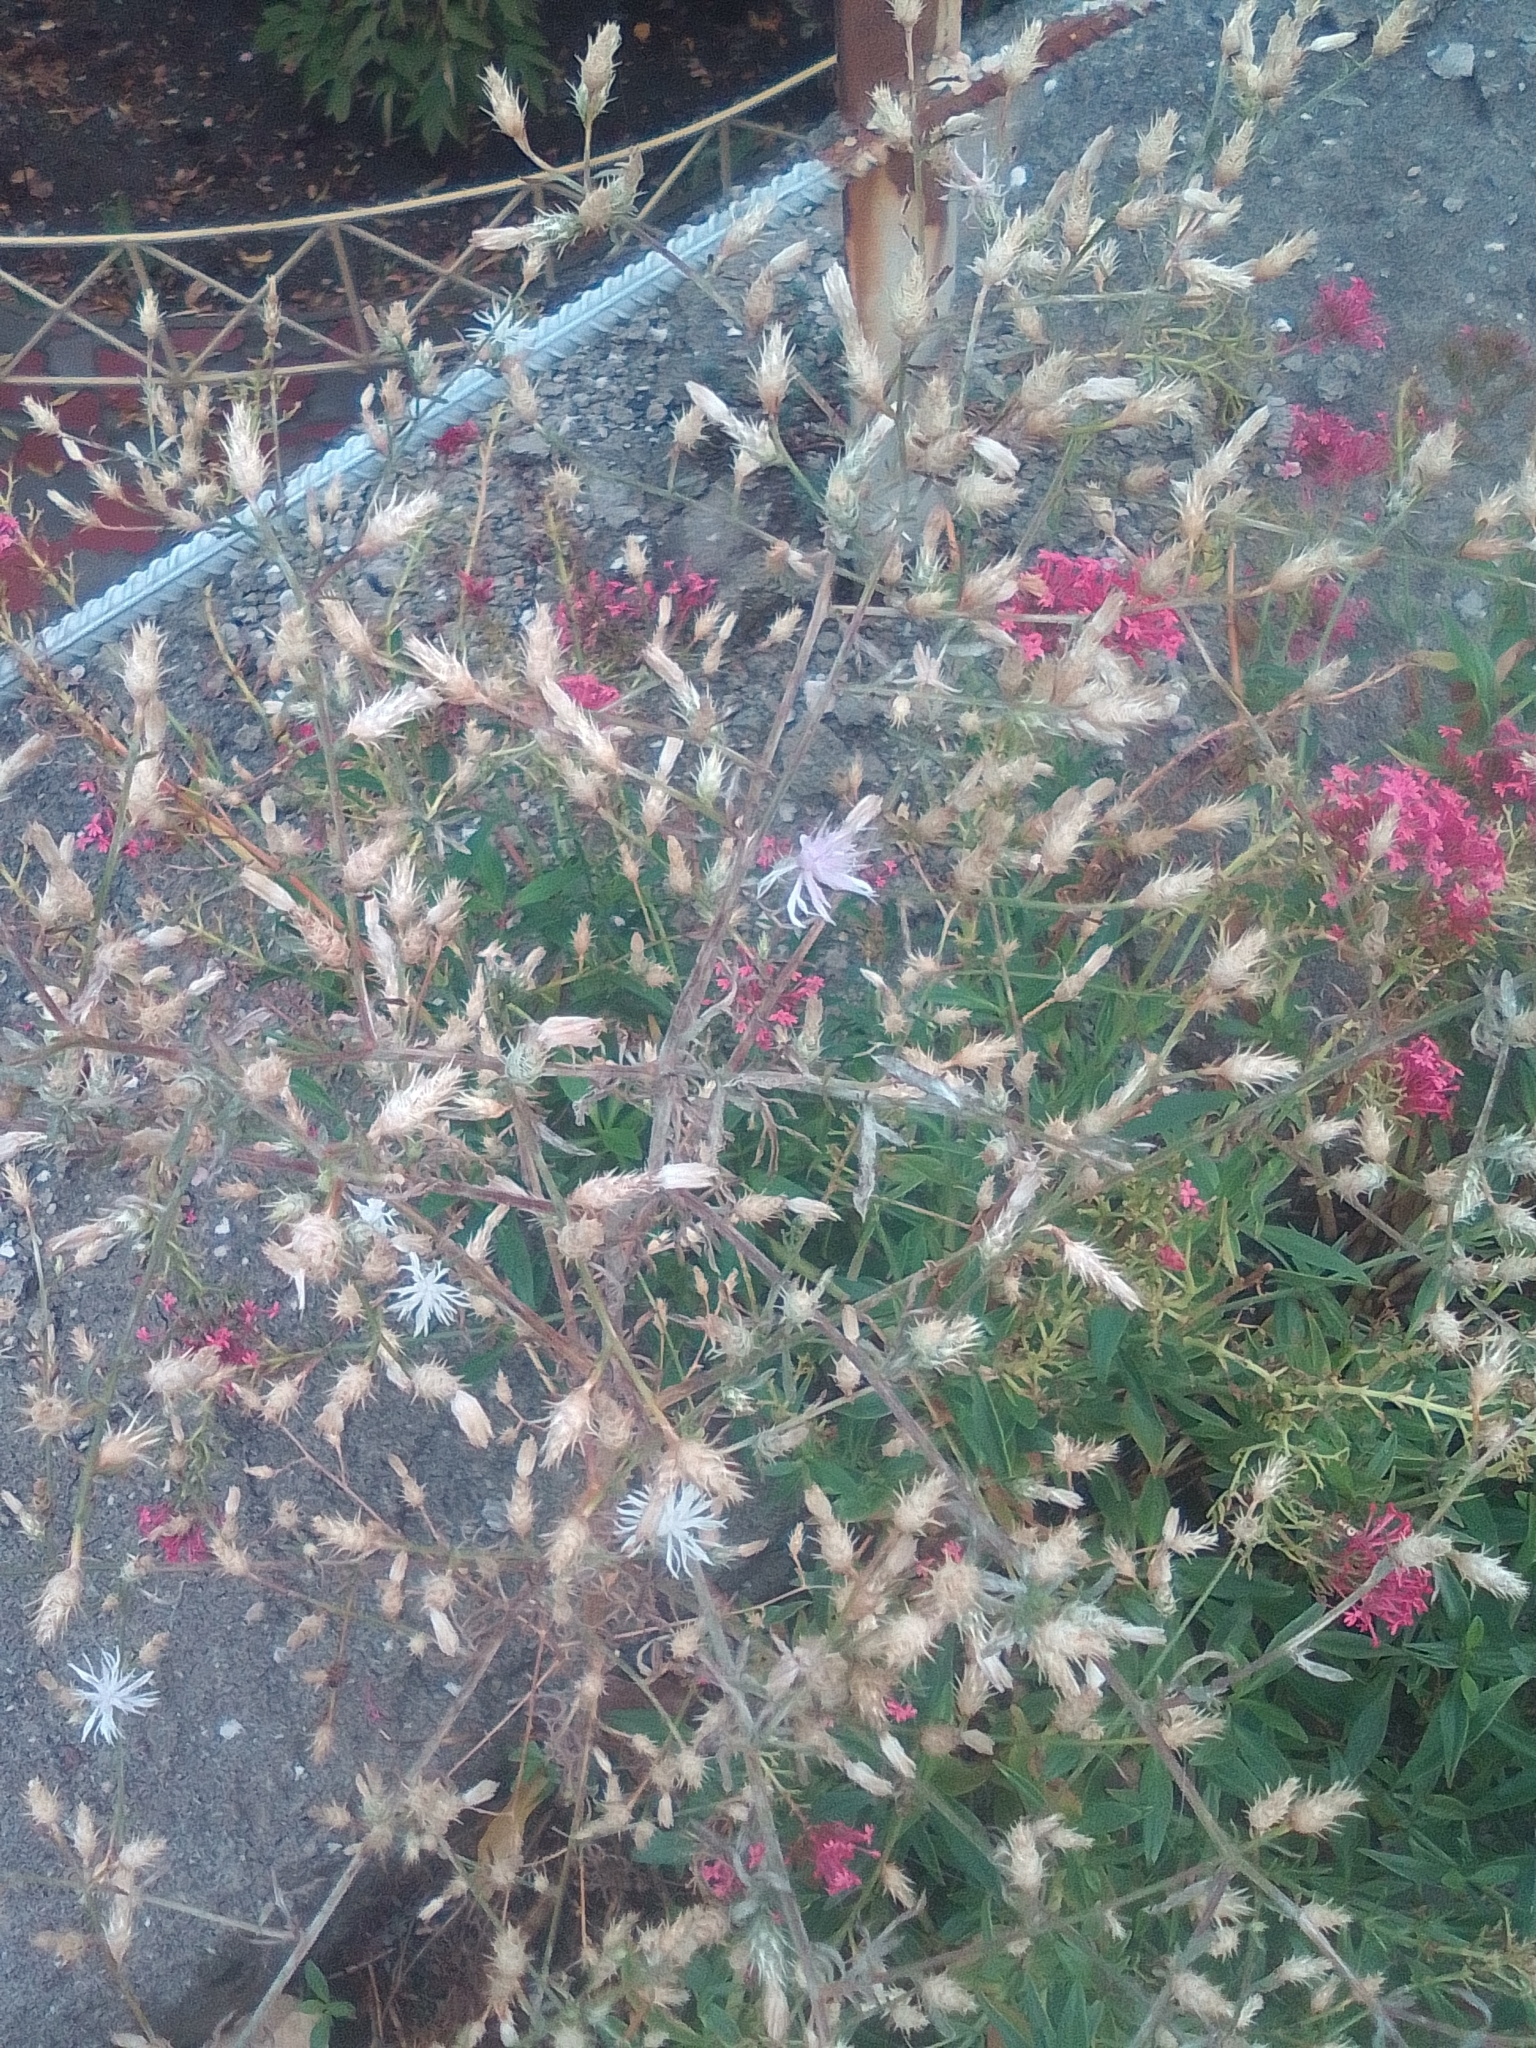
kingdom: Plantae
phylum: Tracheophyta
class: Magnoliopsida
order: Asterales
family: Asteraceae
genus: Centaurea
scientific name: Centaurea diffusa
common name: Diffuse knapweed
